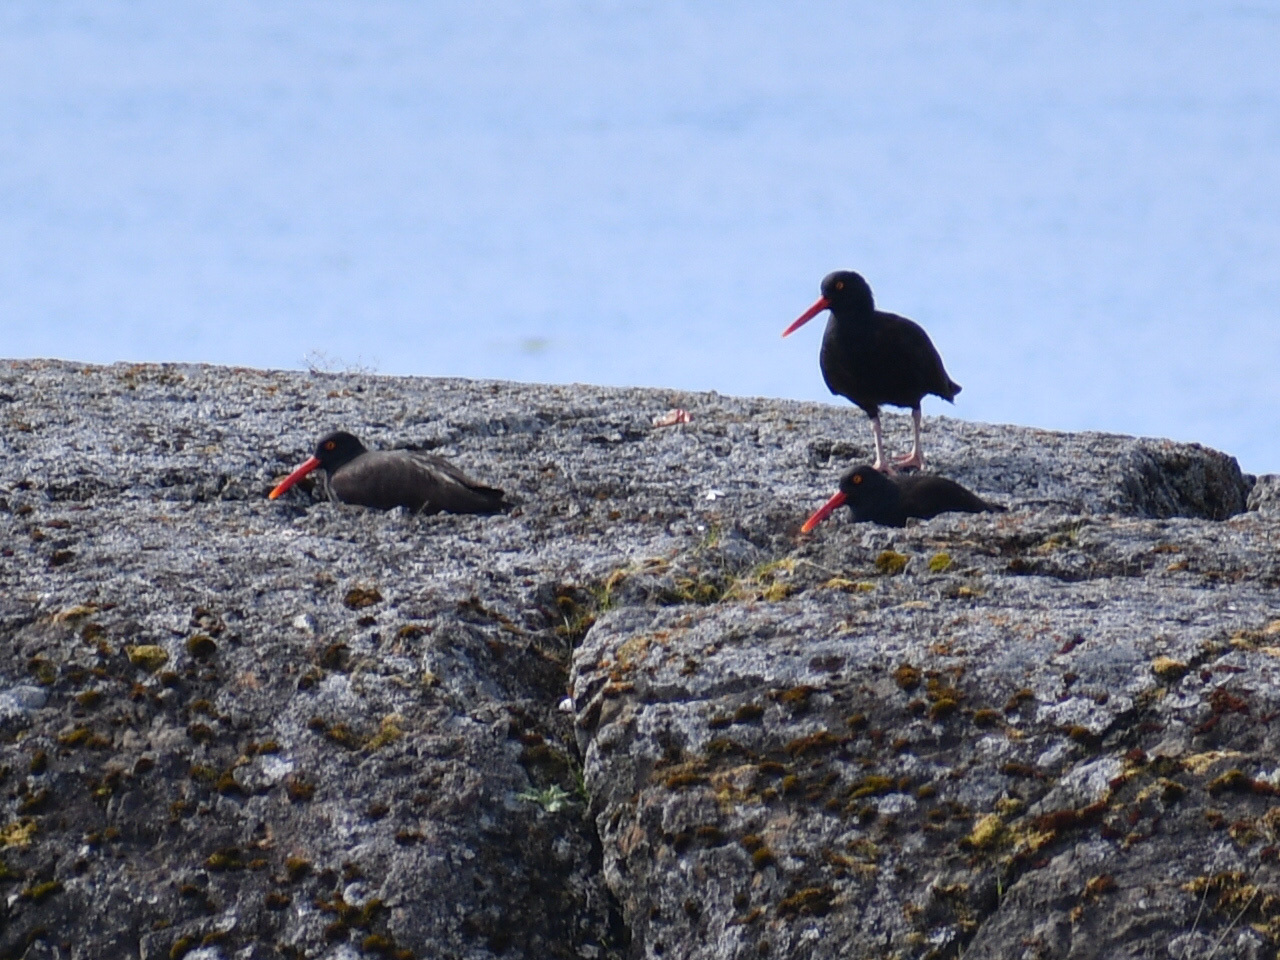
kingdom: Animalia
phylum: Chordata
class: Aves
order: Charadriiformes
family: Haematopodidae
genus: Haematopus
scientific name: Haematopus bachmani
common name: Black oystercatcher
